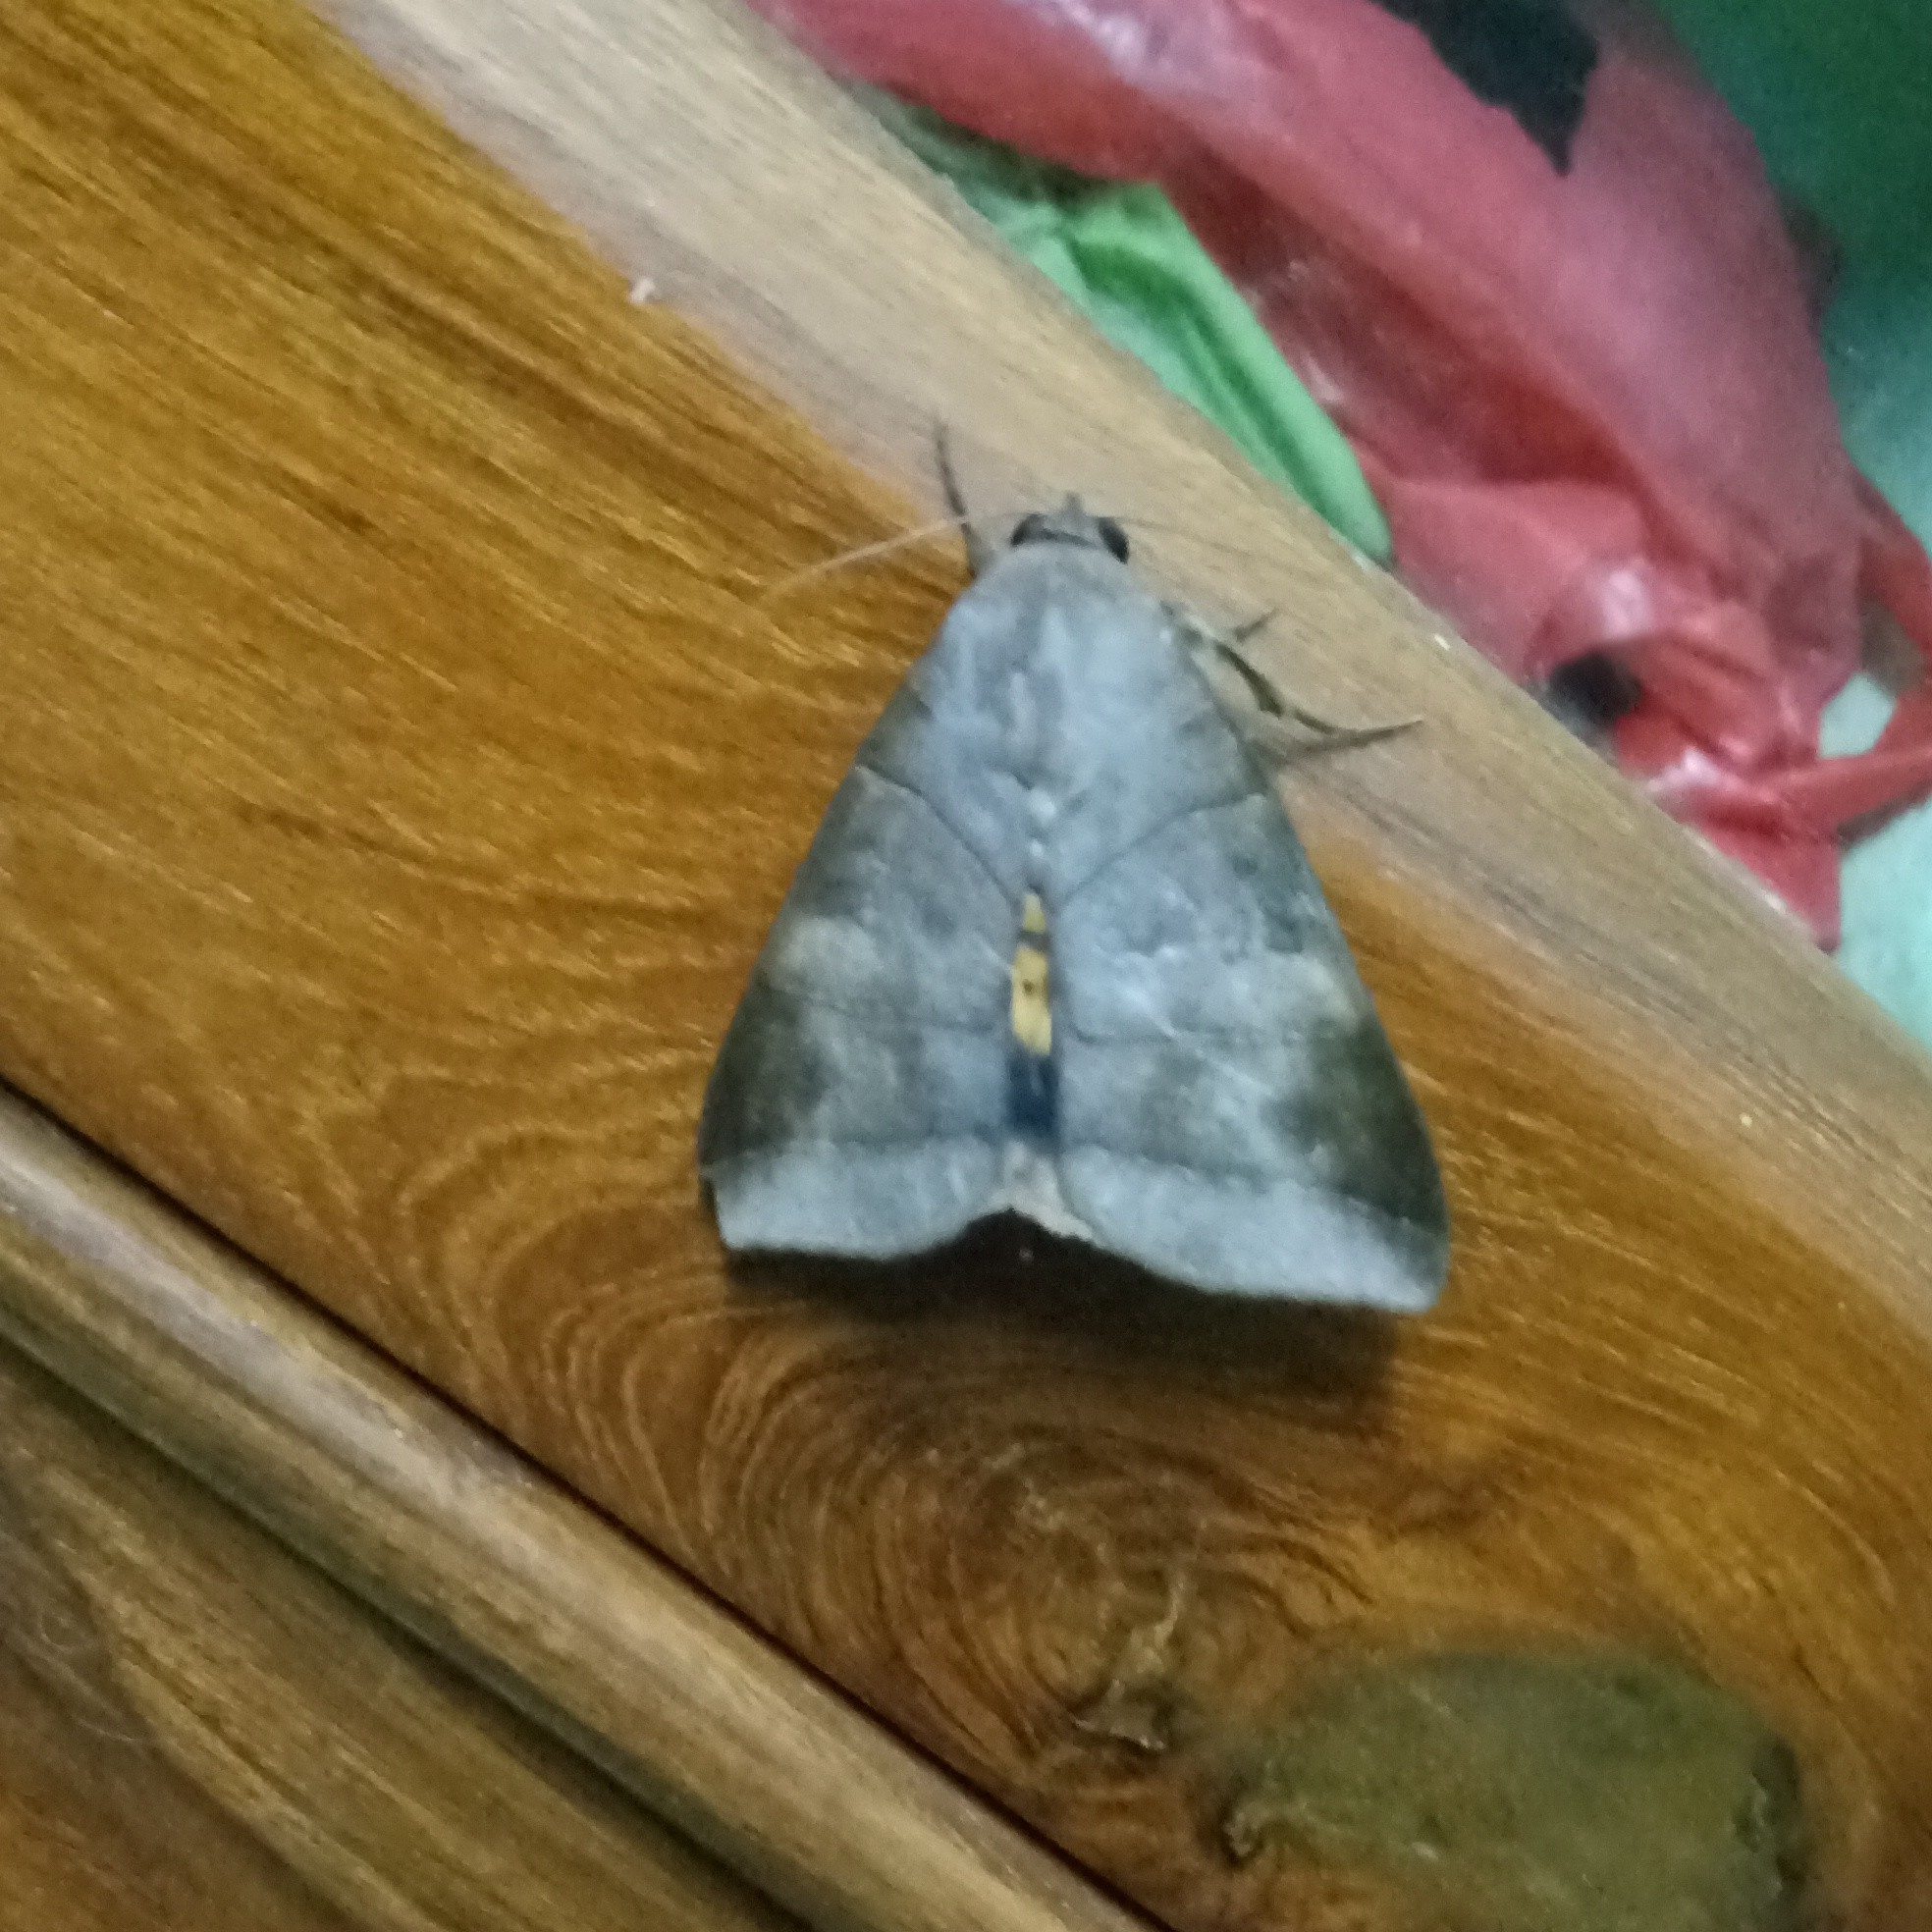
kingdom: Animalia
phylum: Arthropoda
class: Insecta
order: Lepidoptera
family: Erebidae
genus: Thyas
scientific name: Thyas coronata
